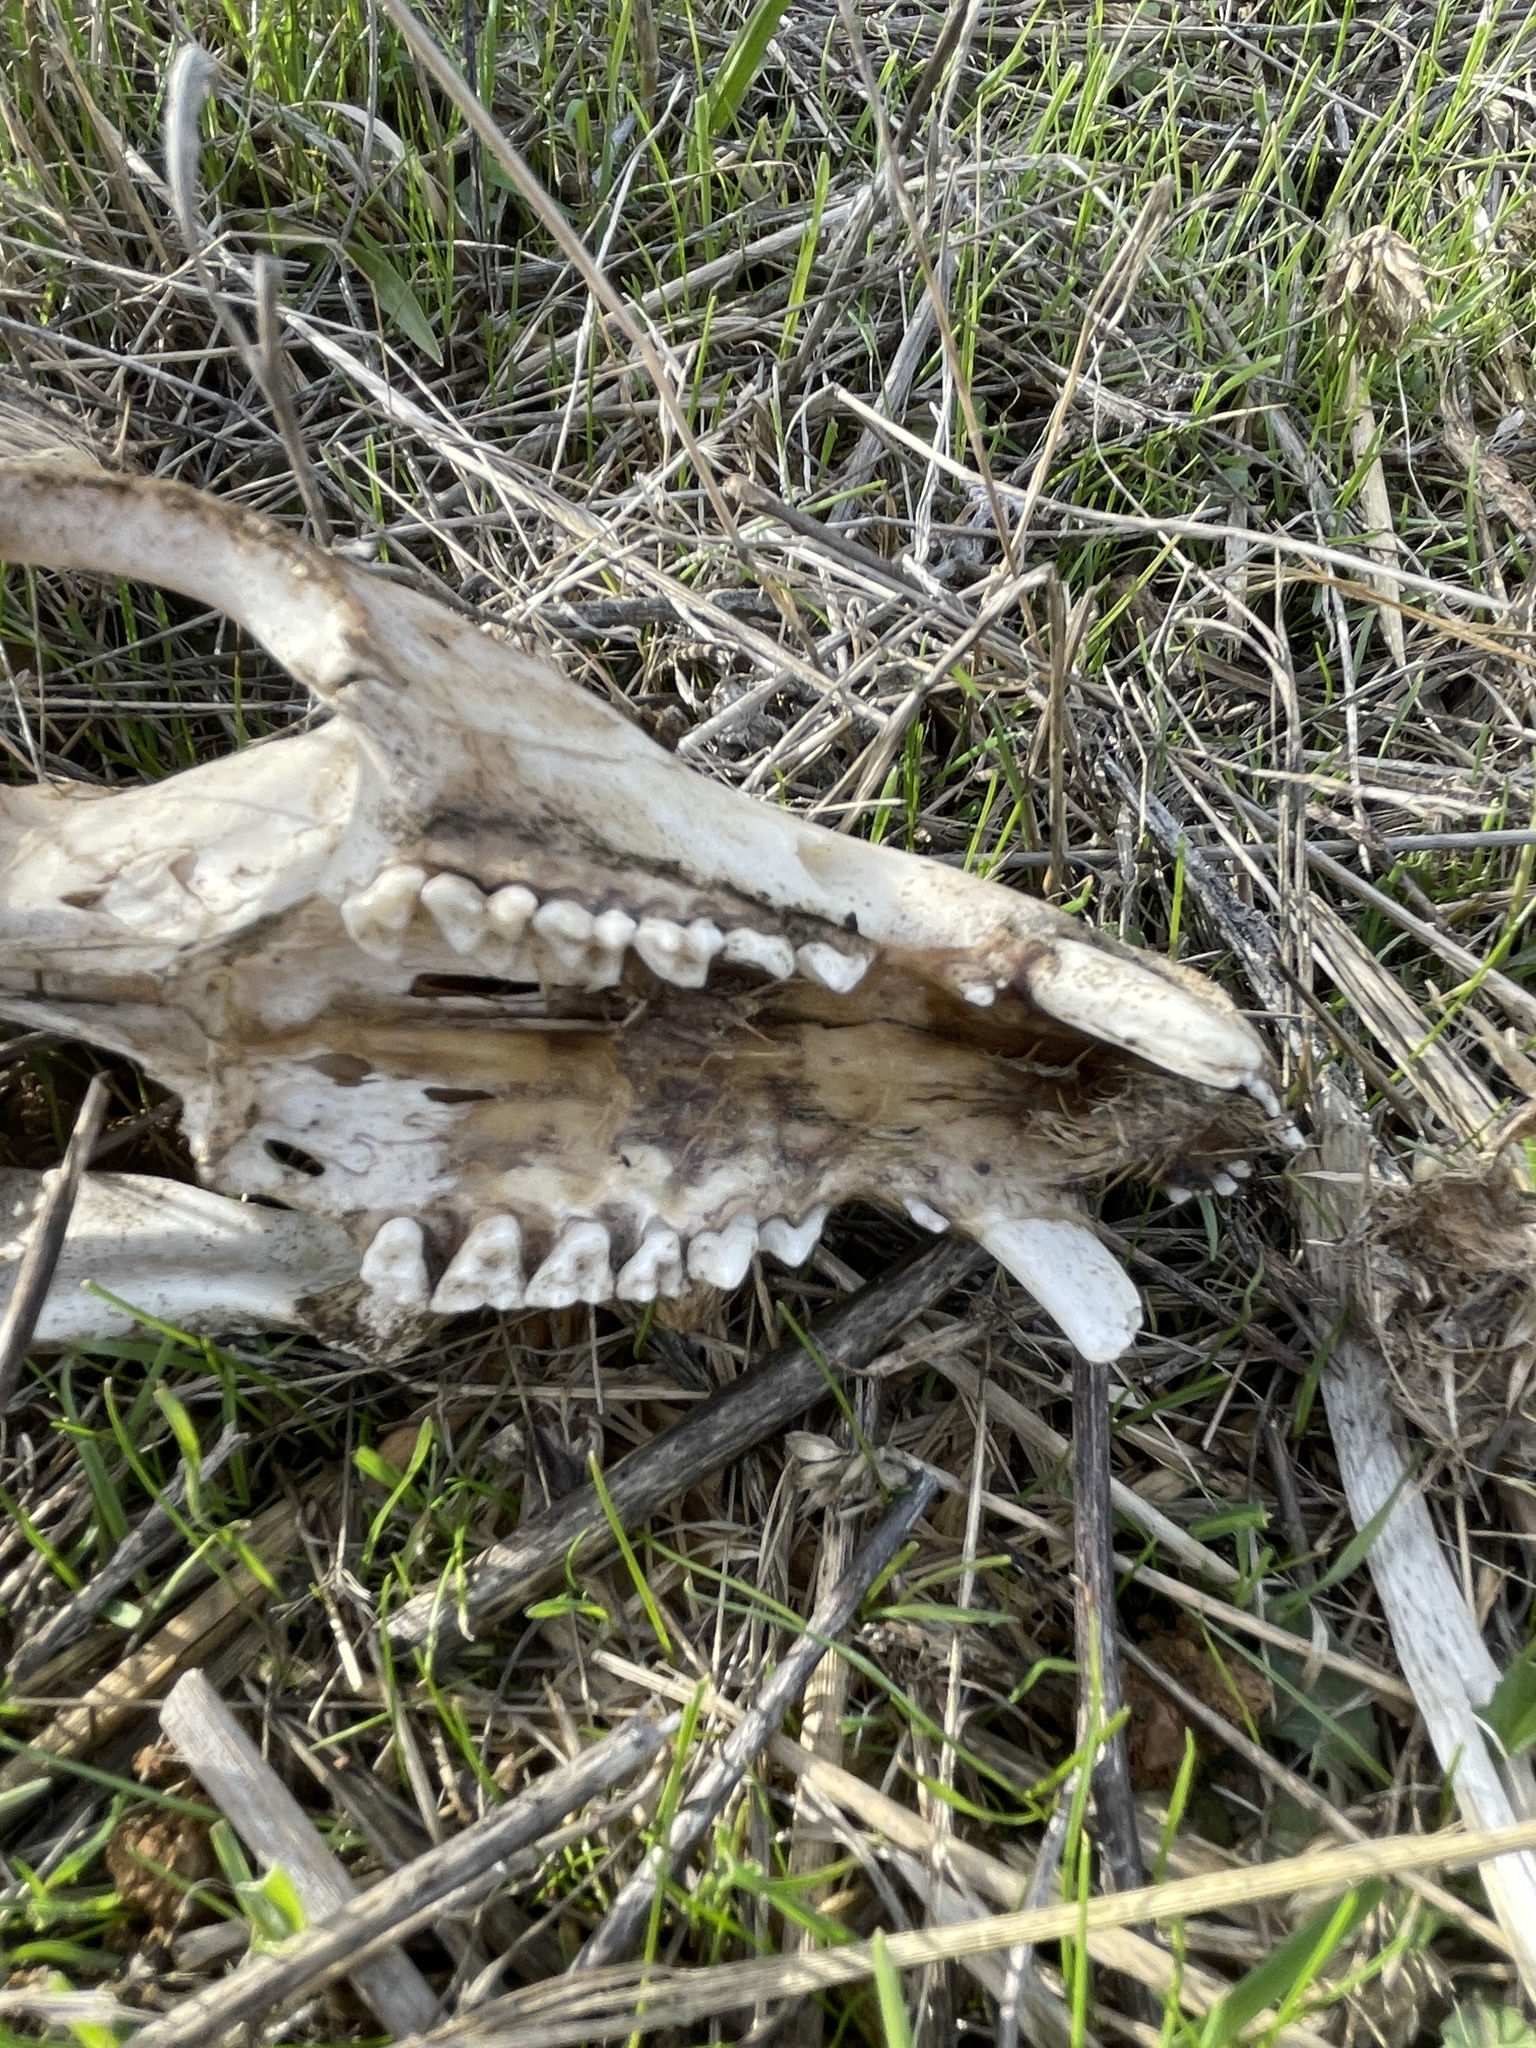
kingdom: Animalia
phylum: Chordata
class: Mammalia
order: Didelphimorphia
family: Didelphidae
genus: Didelphis
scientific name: Didelphis virginiana
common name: Virginia opossum
